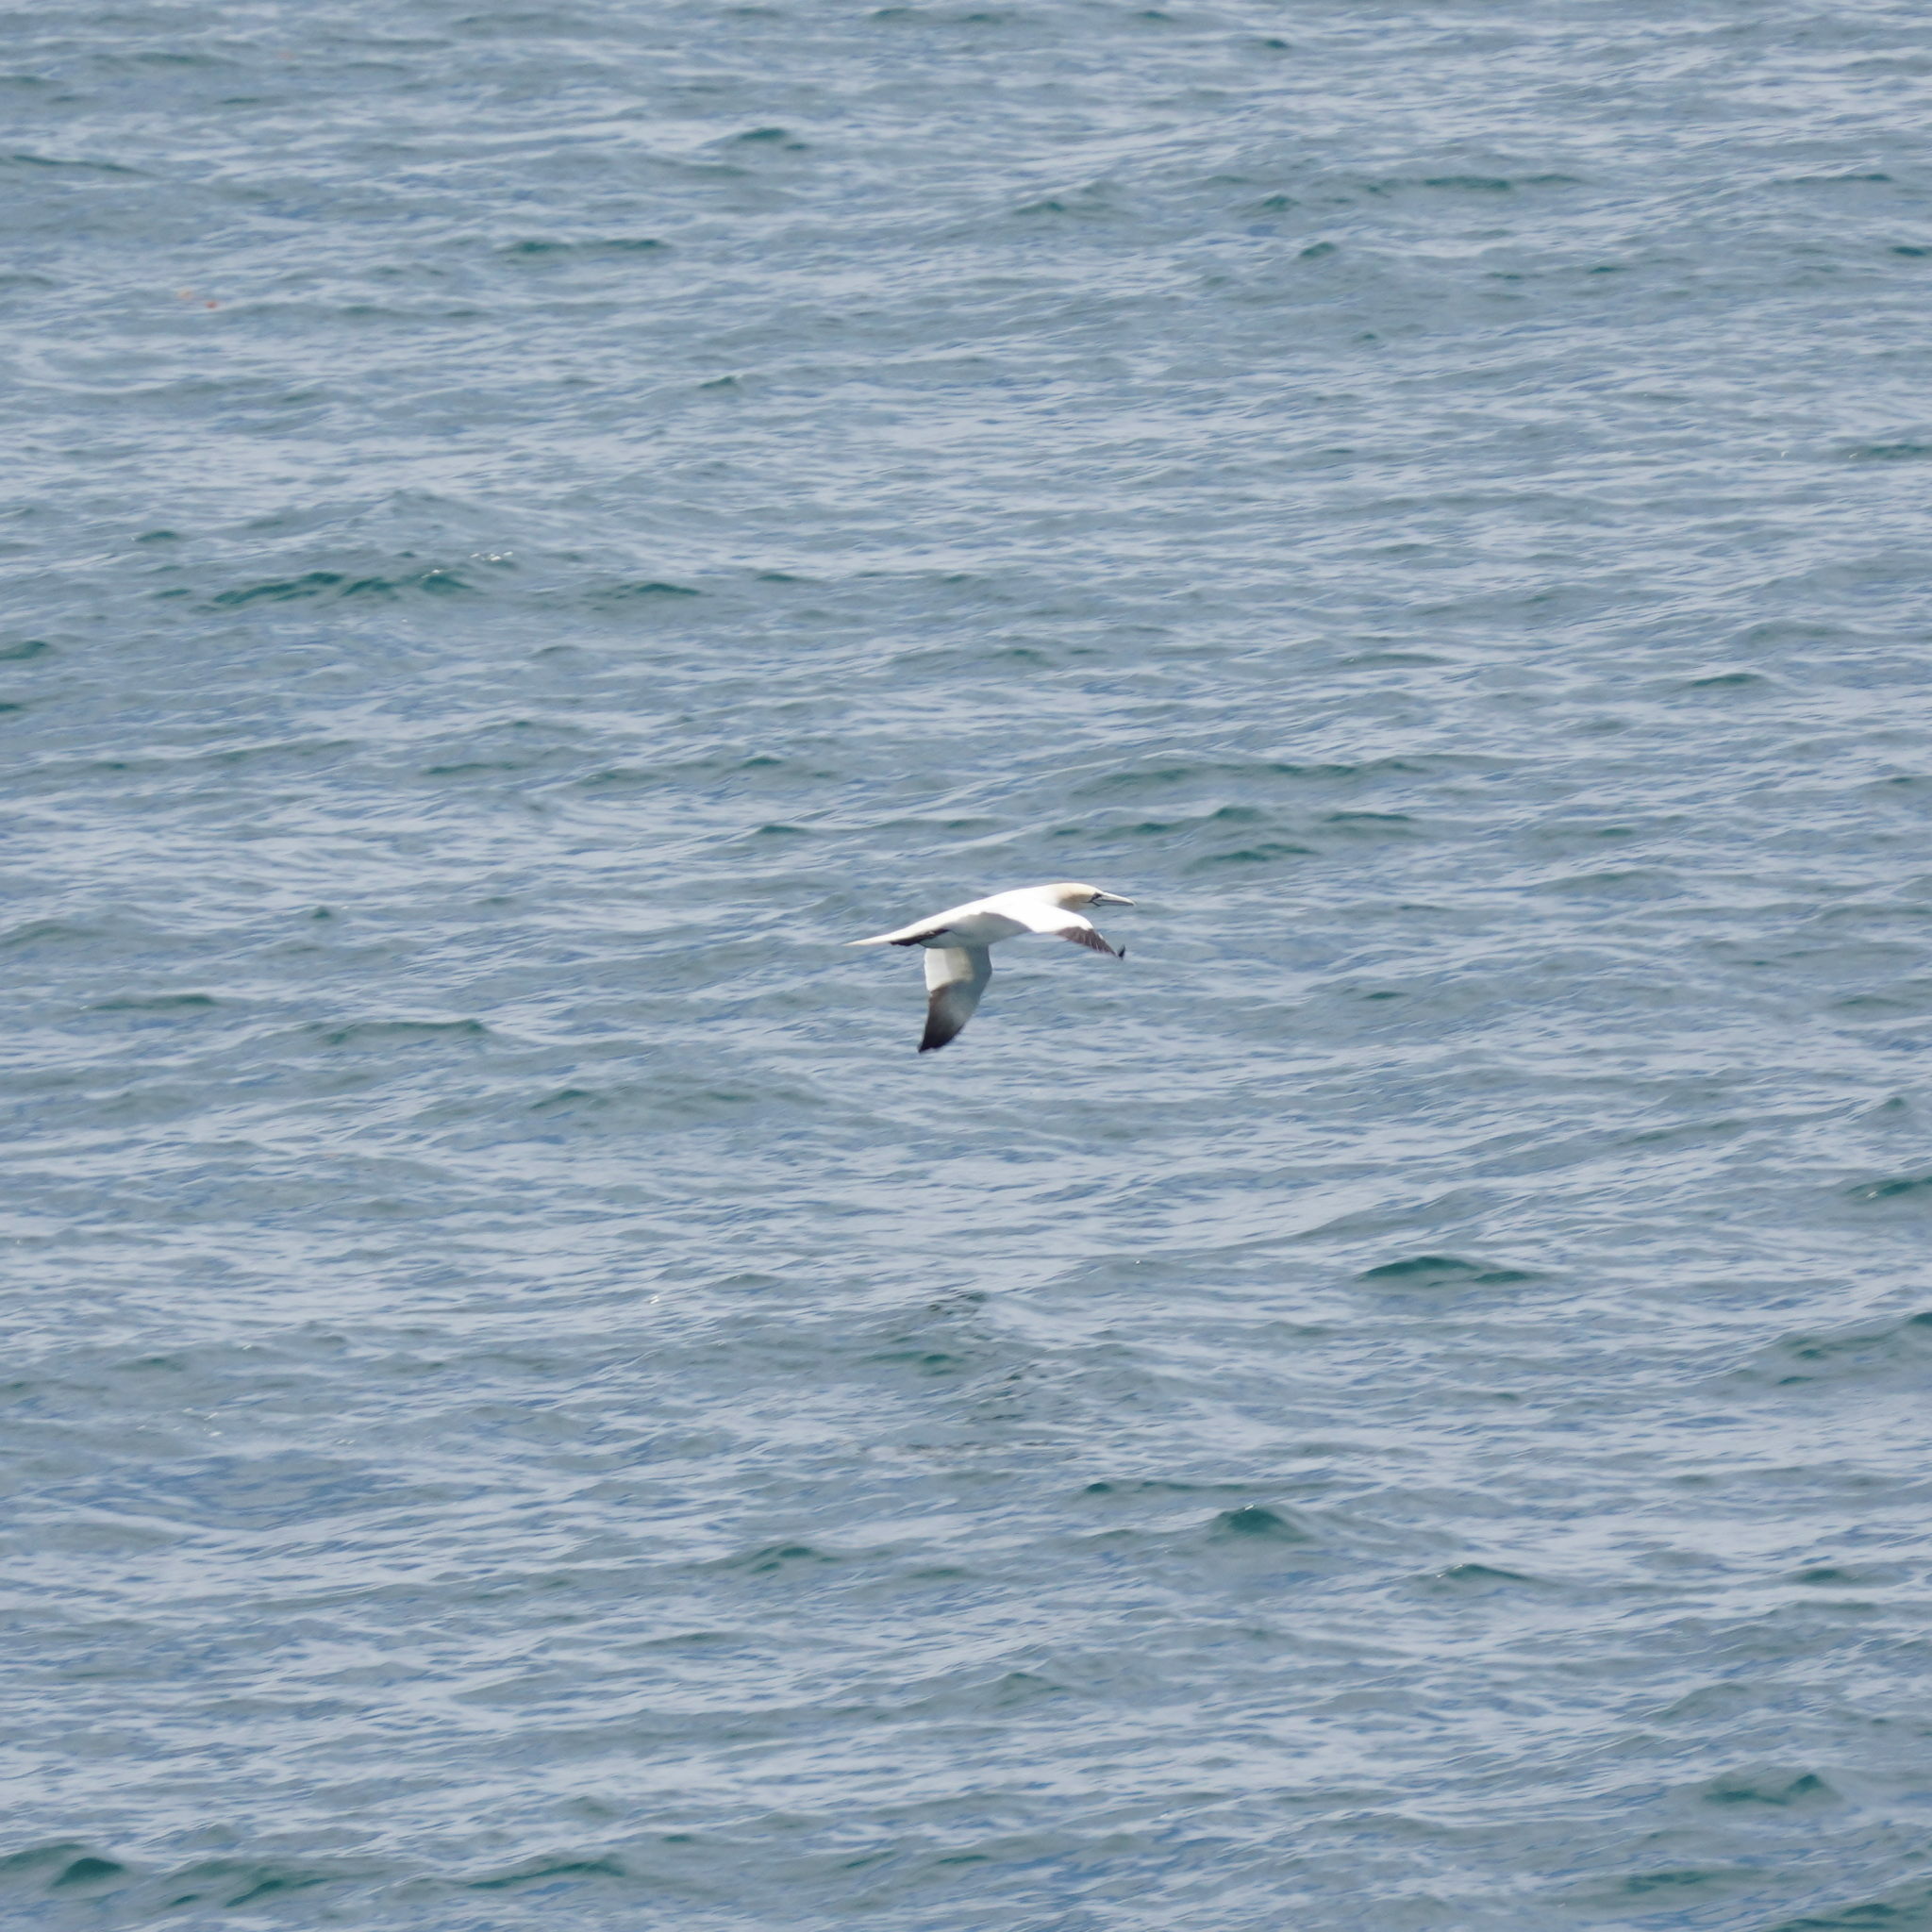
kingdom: Animalia
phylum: Chordata
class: Aves
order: Suliformes
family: Sulidae
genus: Morus
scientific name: Morus bassanus
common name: Northern gannet
